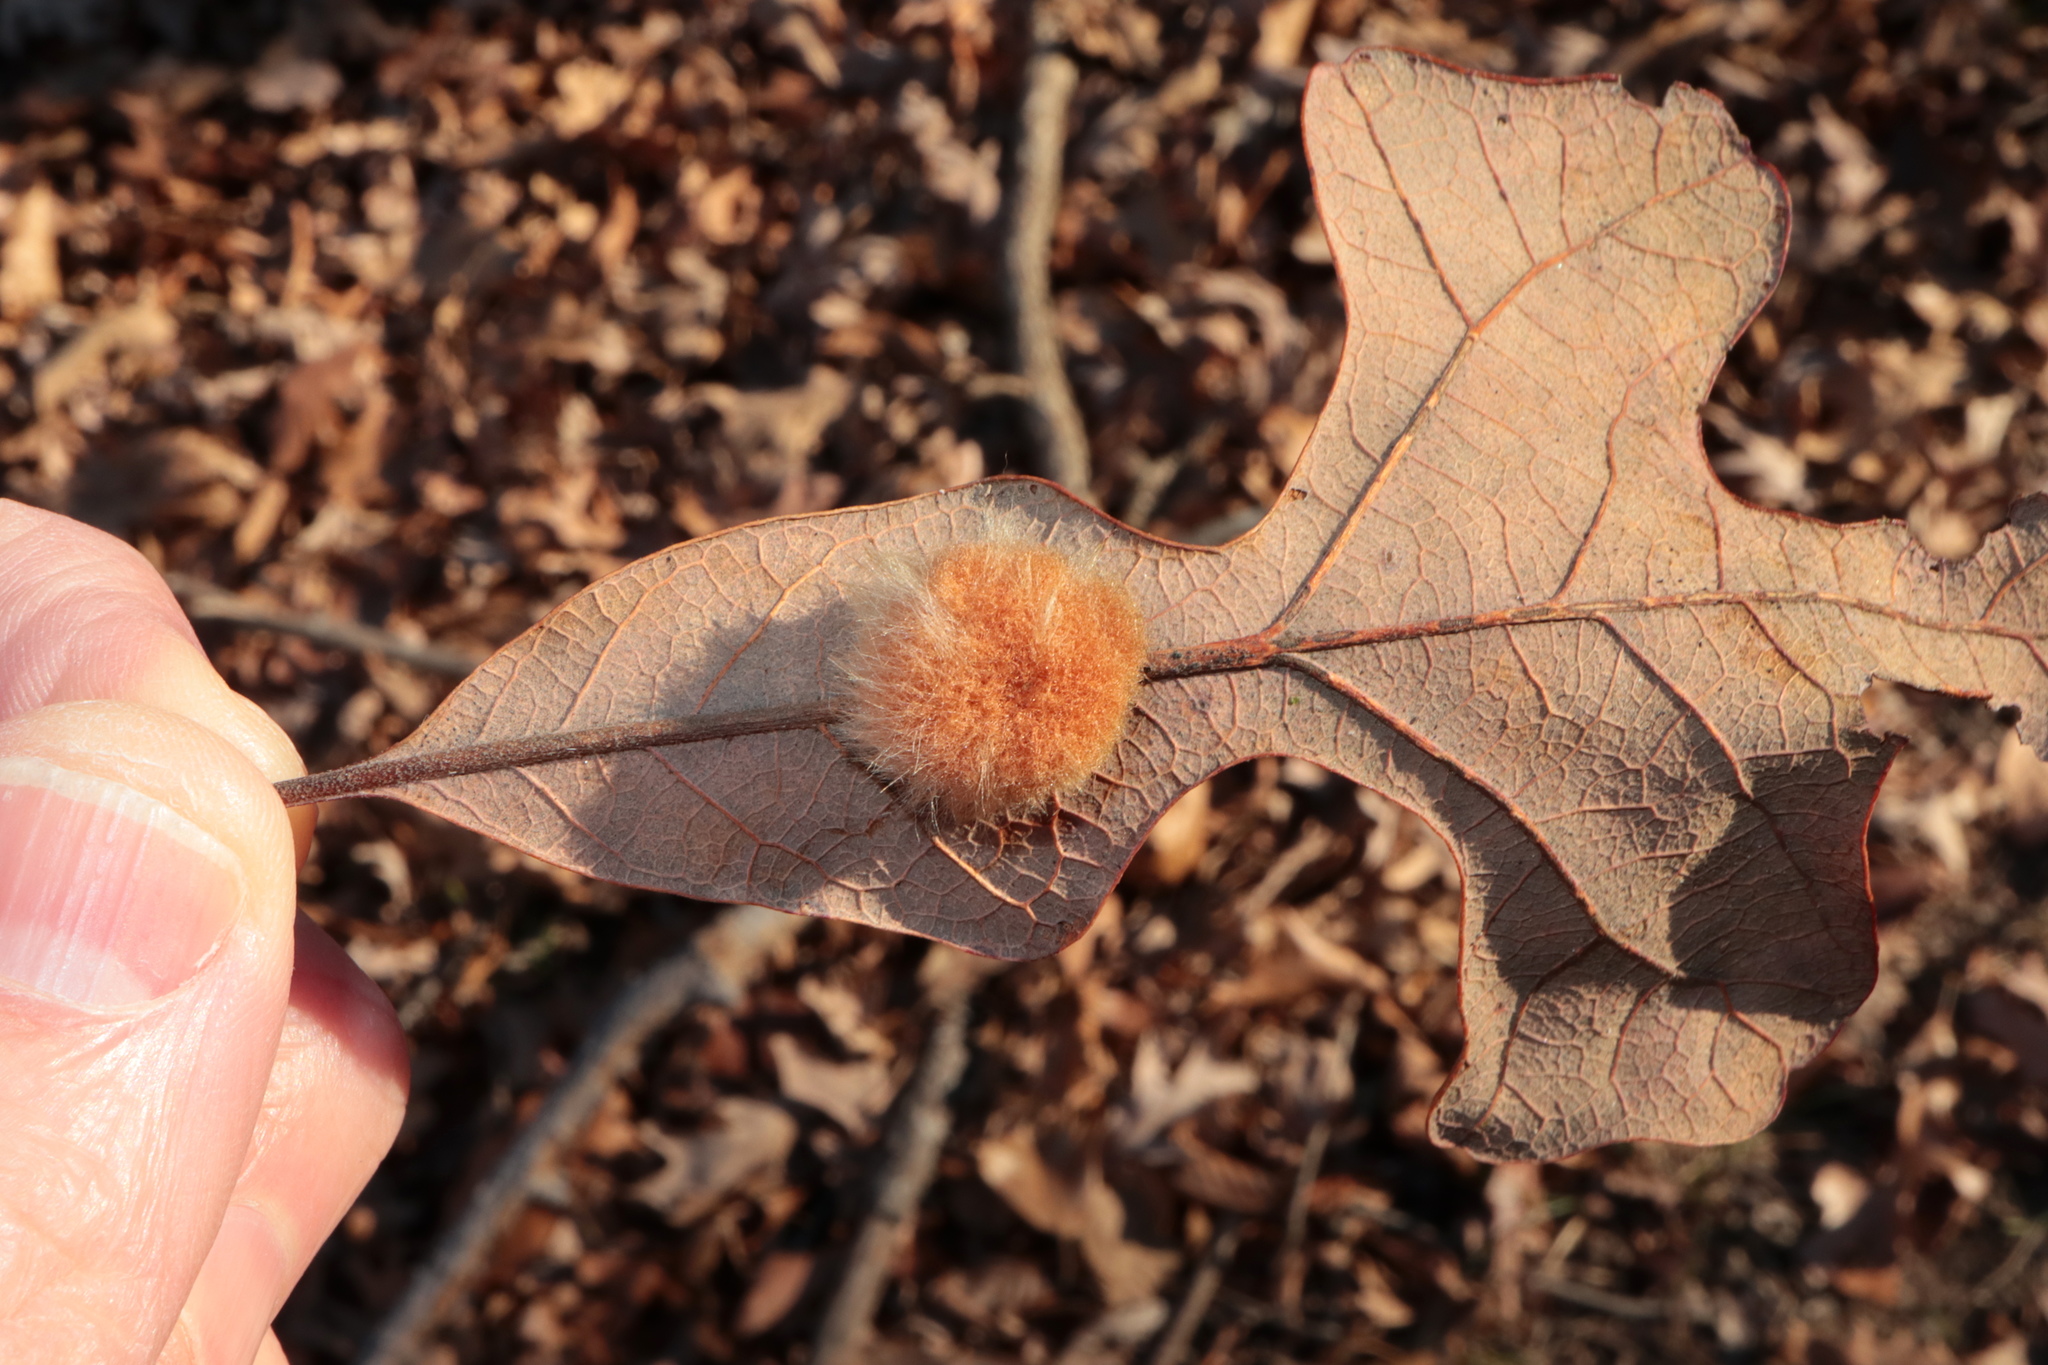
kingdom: Animalia
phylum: Arthropoda
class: Insecta
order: Hymenoptera
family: Cynipidae
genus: Andricus
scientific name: Andricus Druon pattoni
